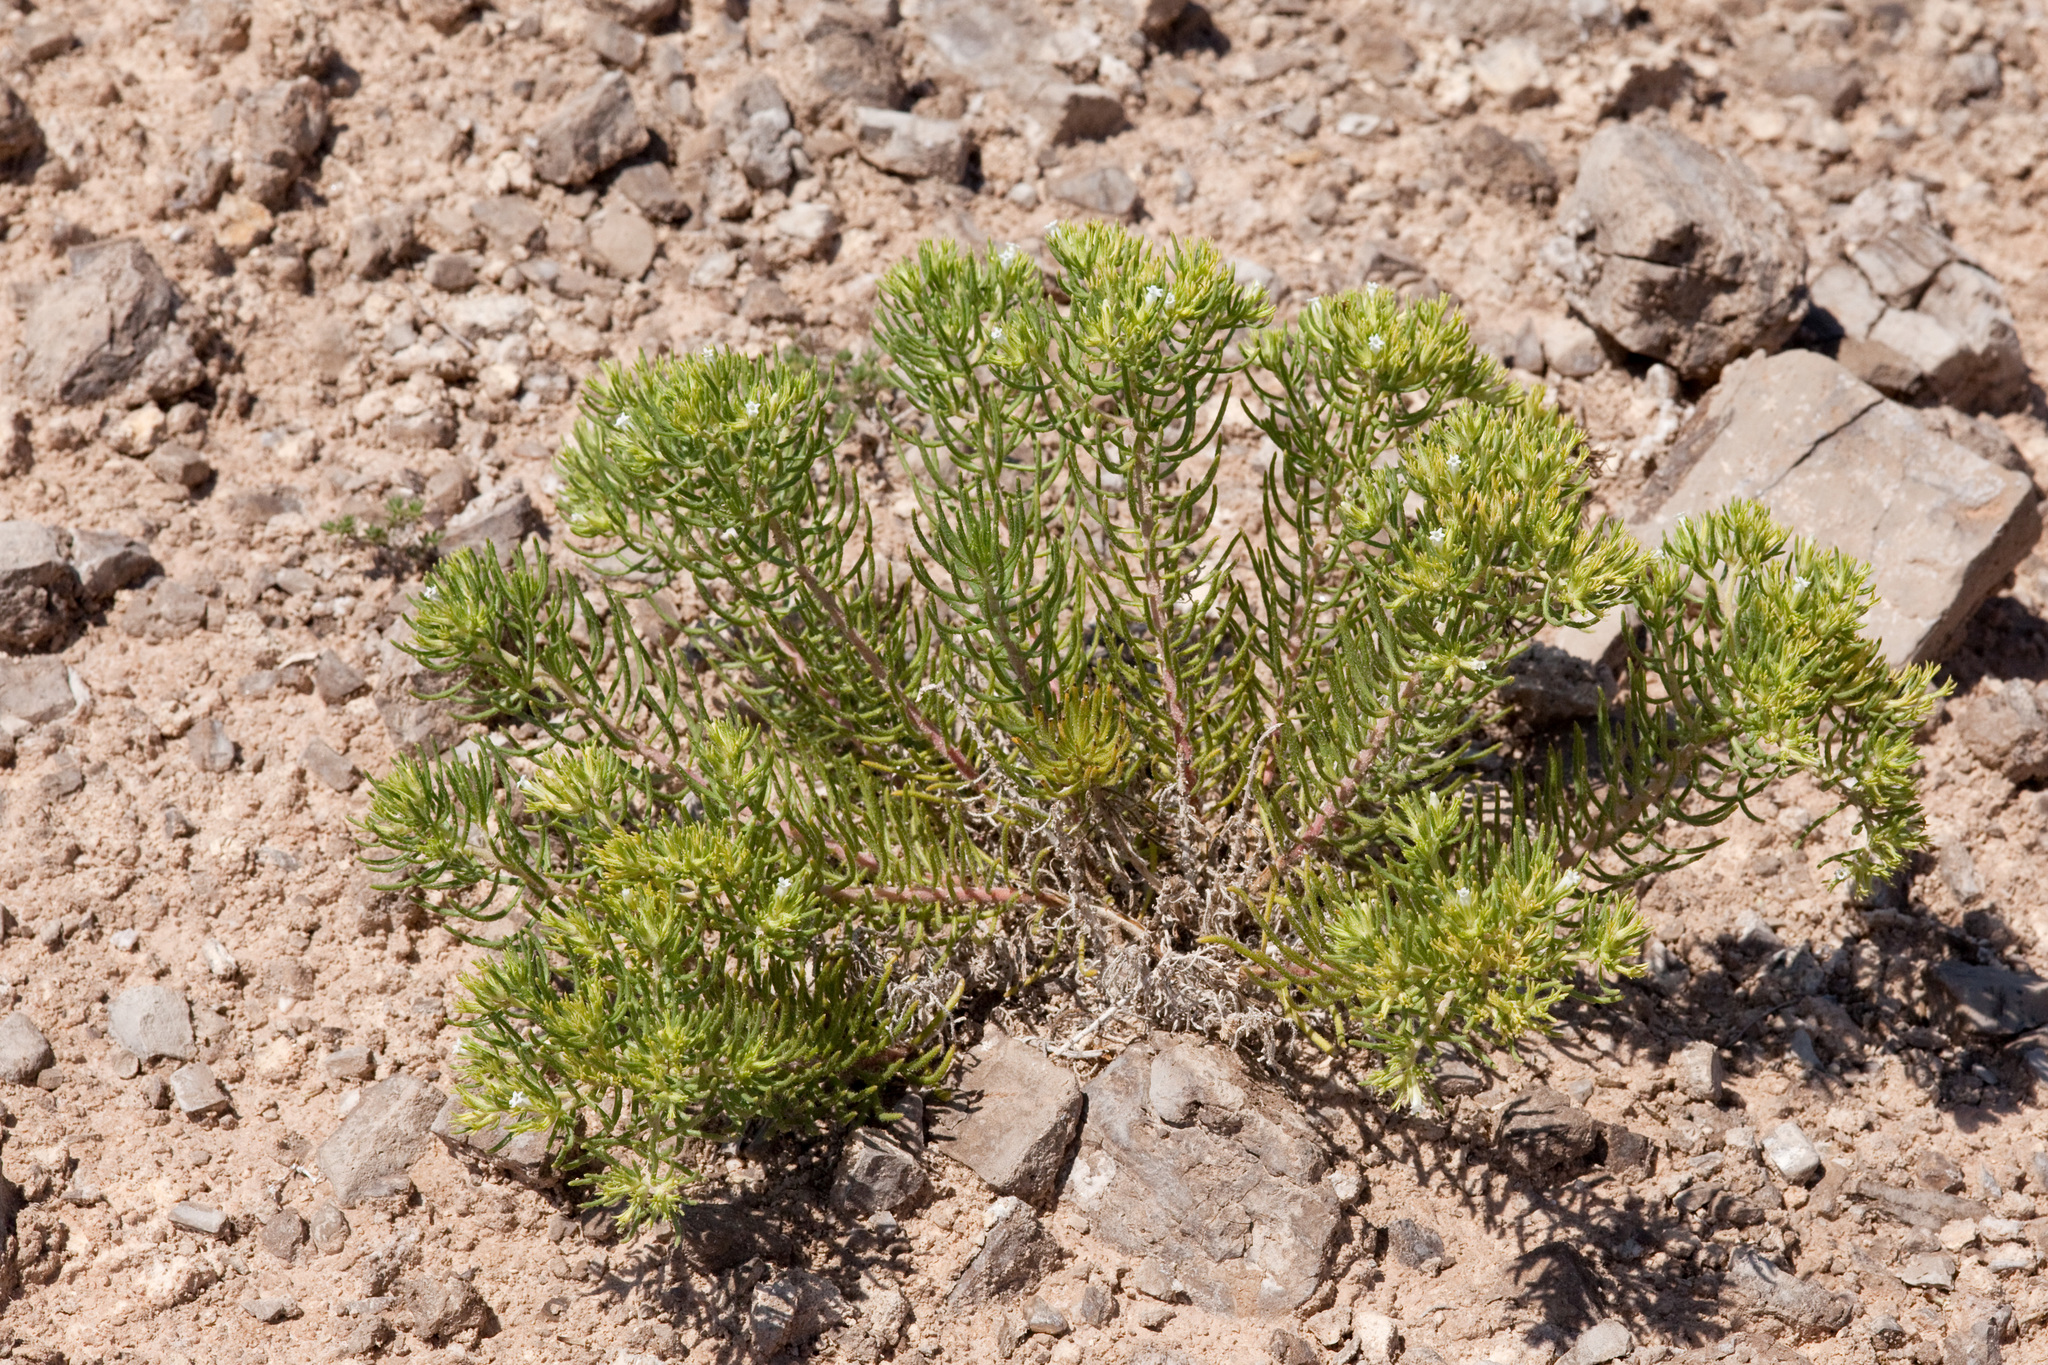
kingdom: Plantae
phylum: Tracheophyta
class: Magnoliopsida
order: Boraginales
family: Namaceae
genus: Andropus
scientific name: Andropus carnosus
